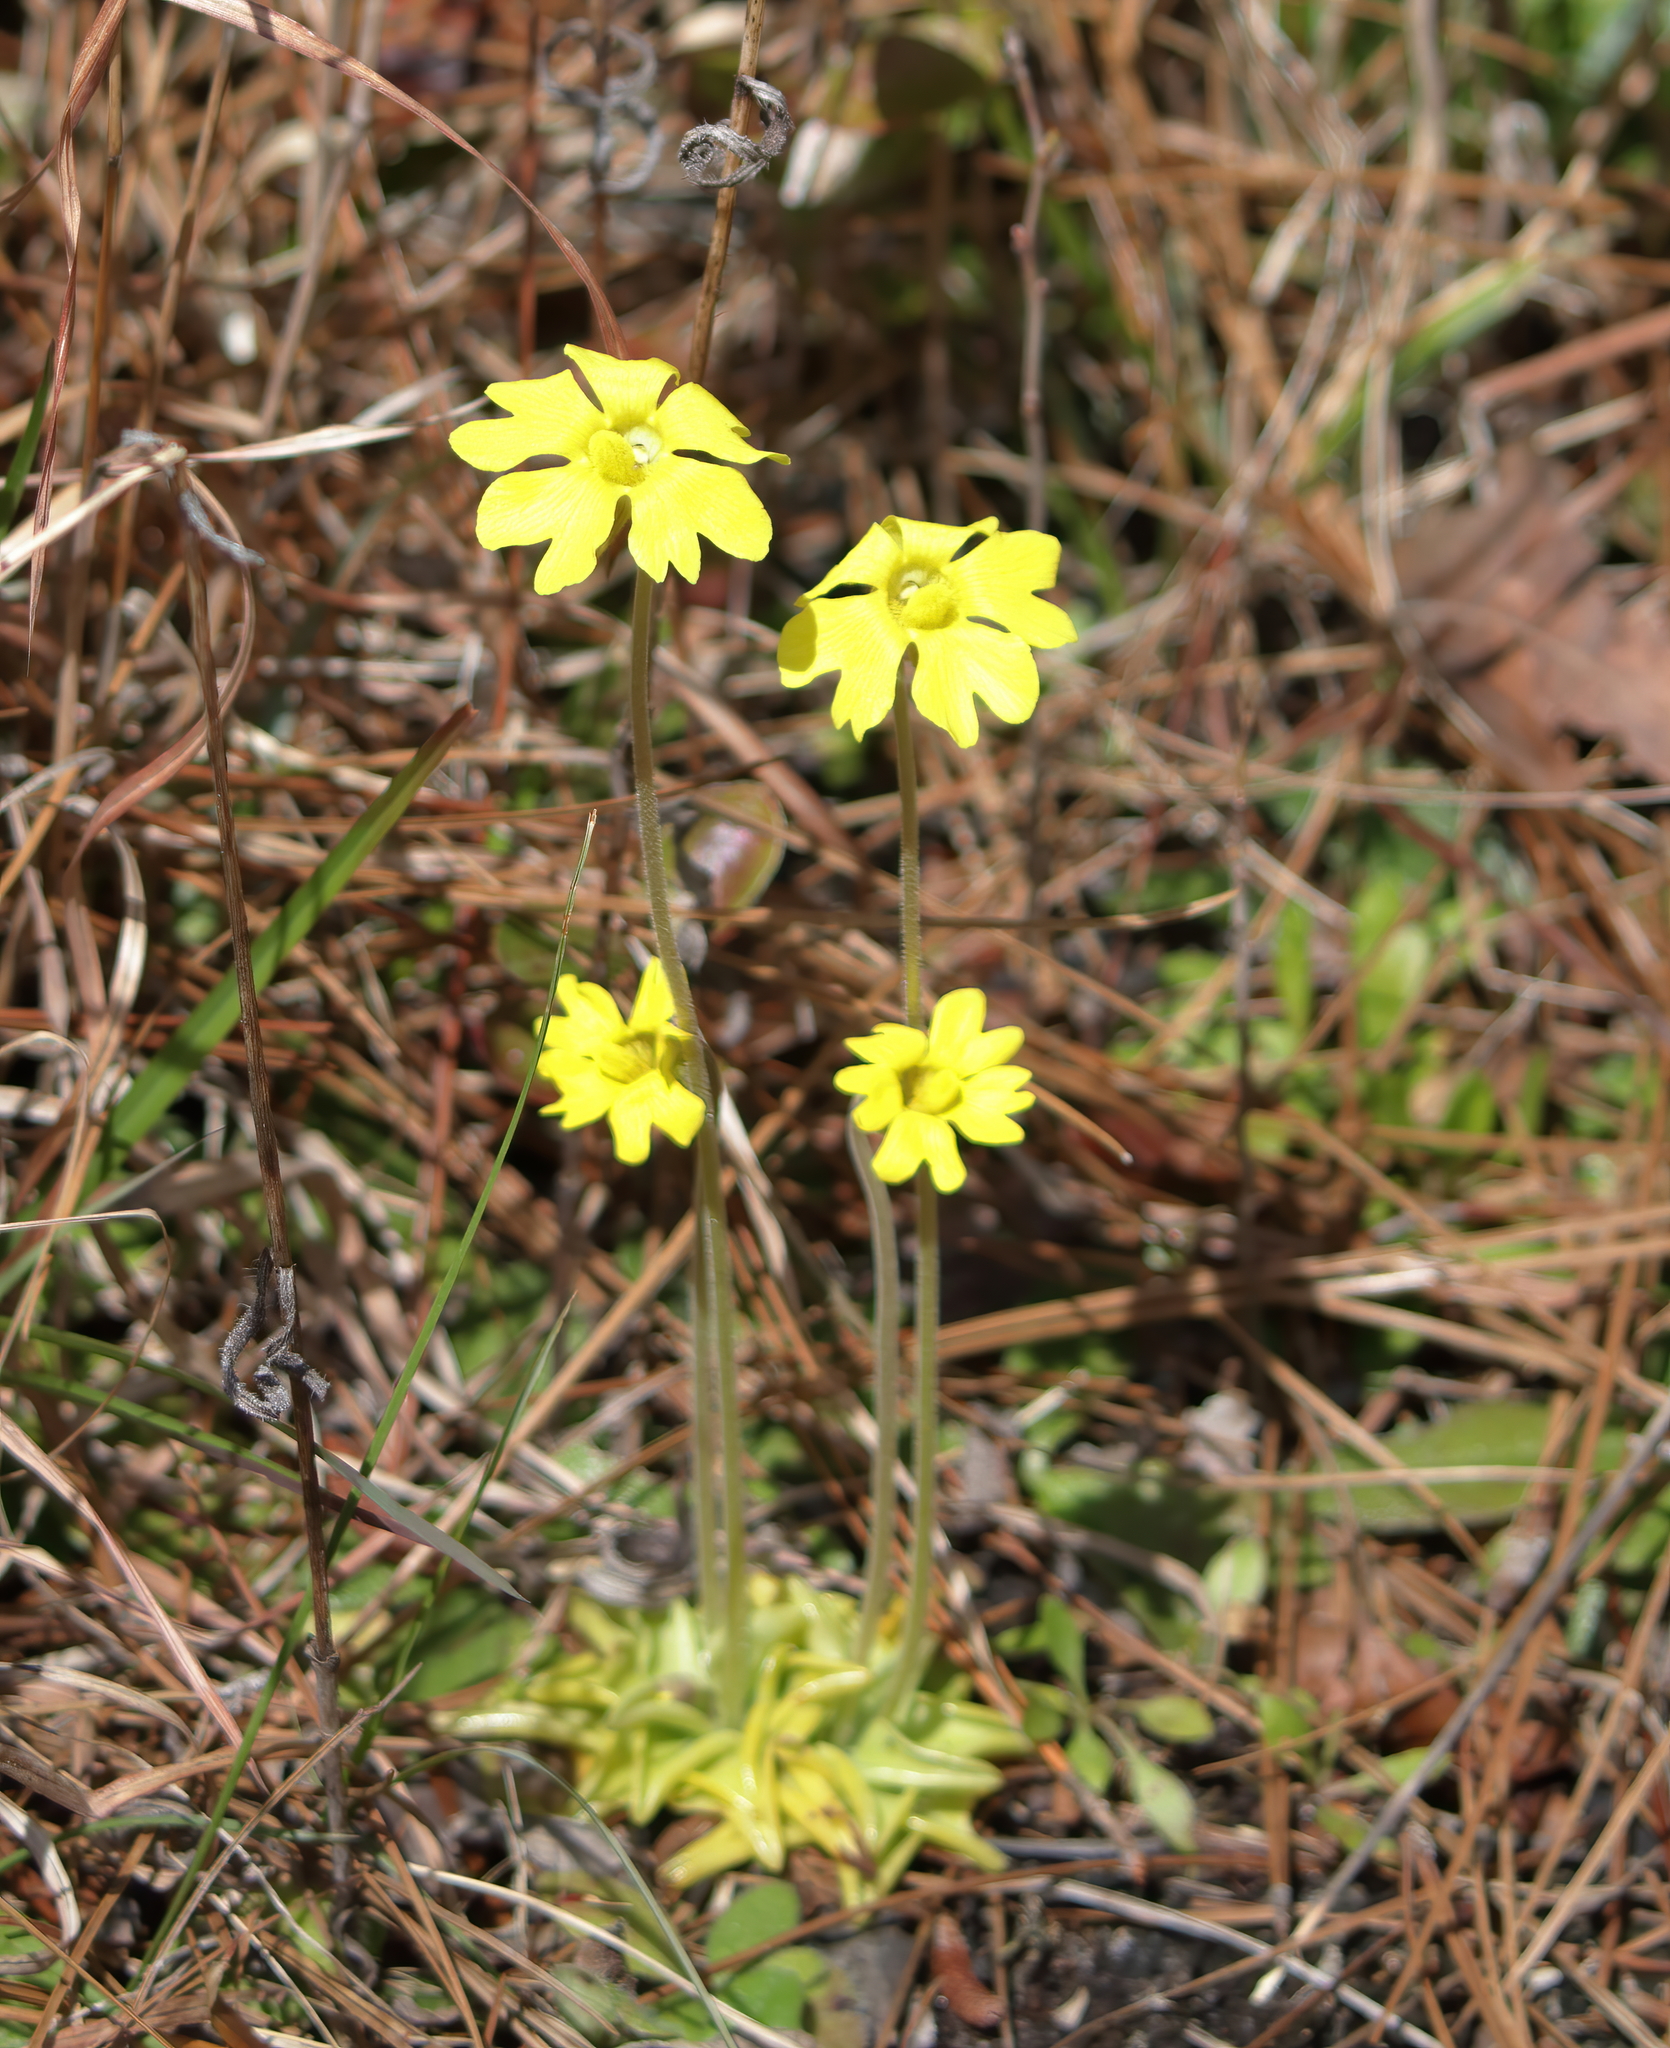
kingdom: Plantae
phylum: Tracheophyta
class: Magnoliopsida
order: Lamiales
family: Lentibulariaceae
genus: Pinguicula
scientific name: Pinguicula lutea
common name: Yellow butterwort
